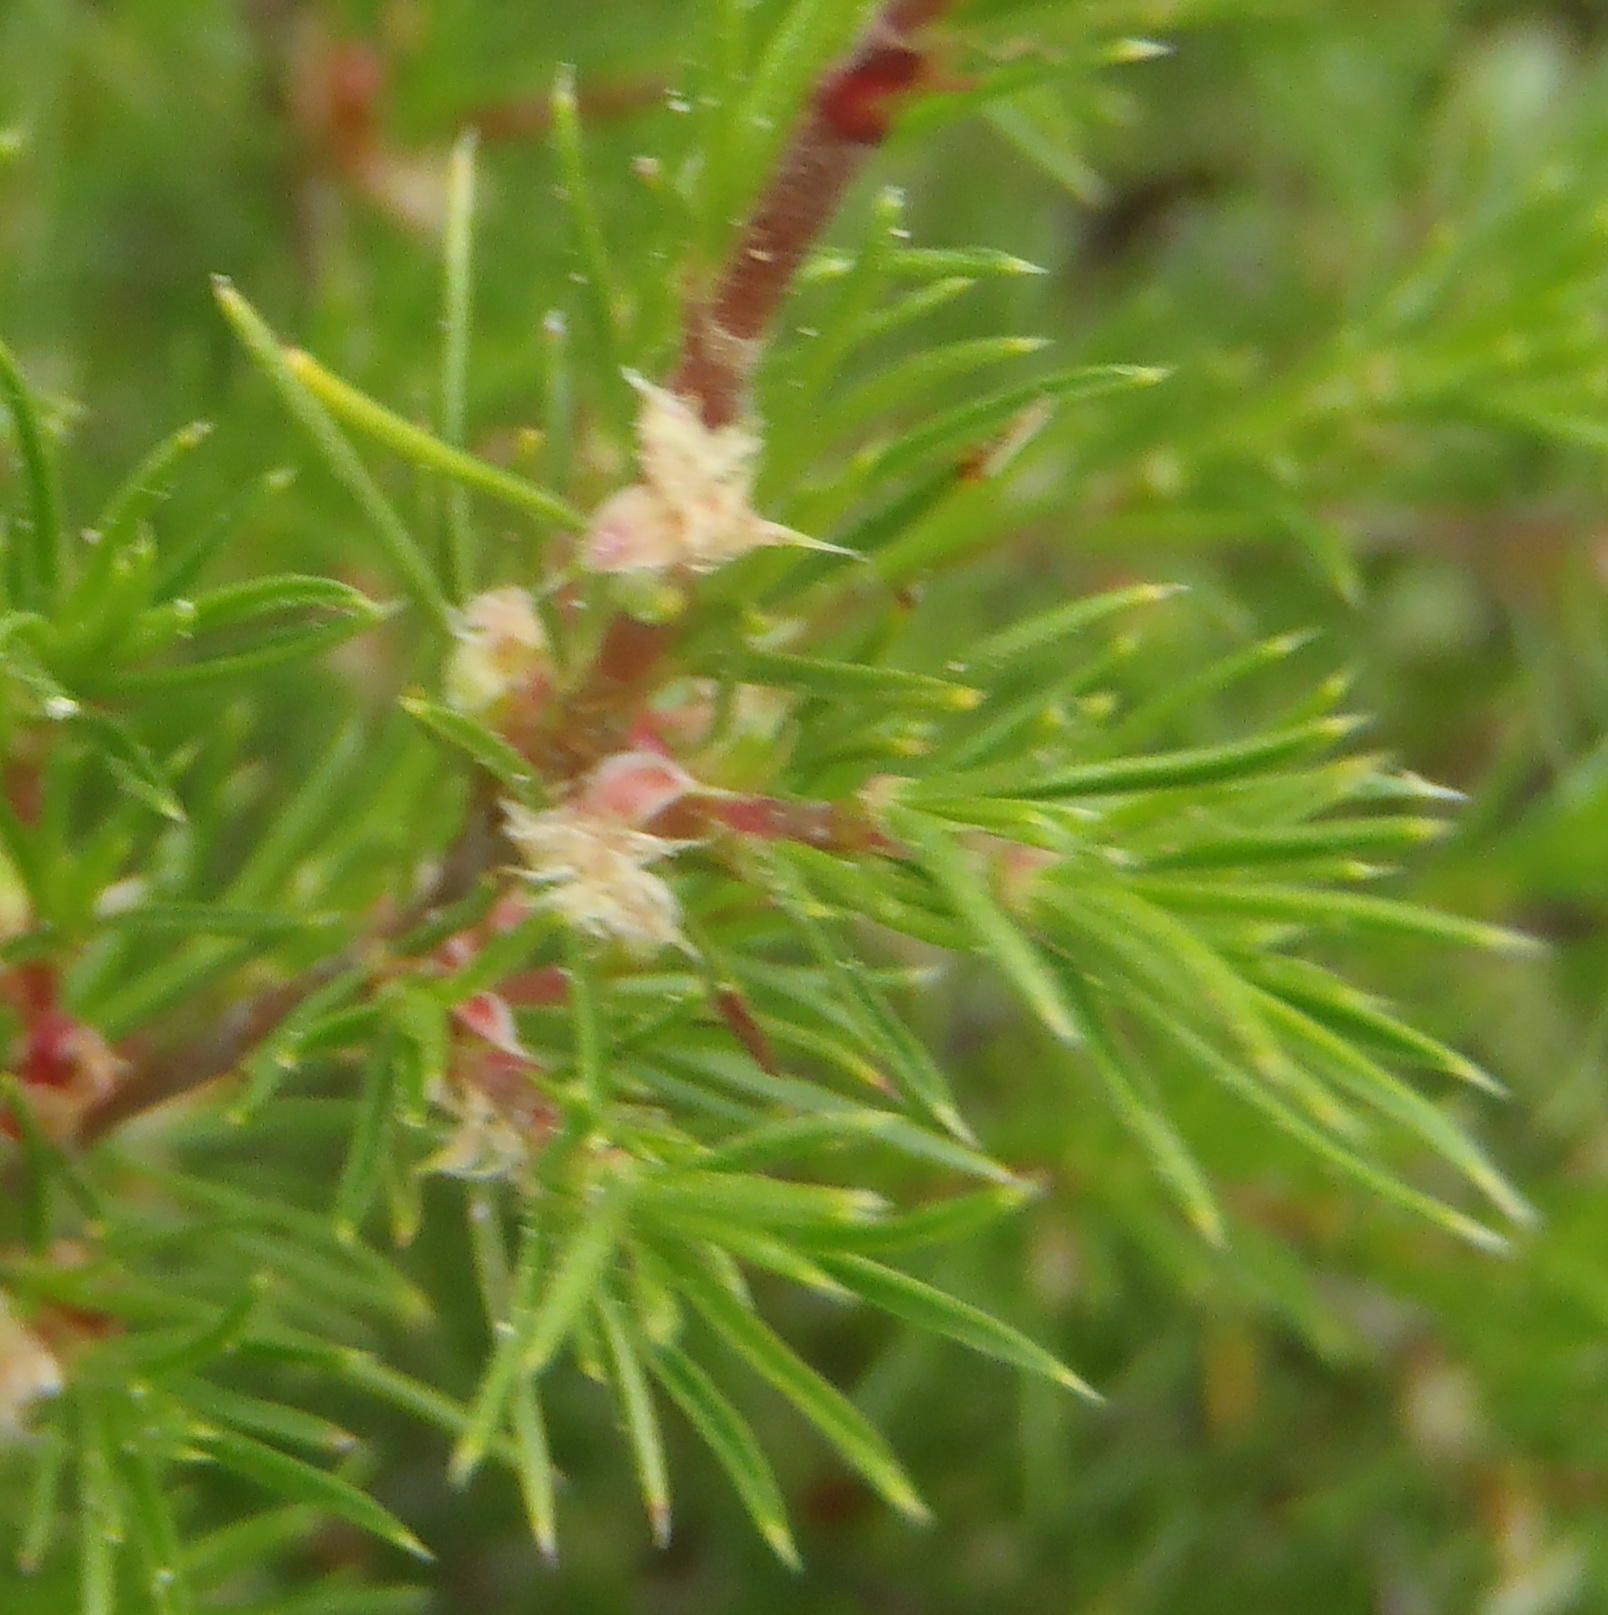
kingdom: Plantae
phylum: Tracheophyta
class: Magnoliopsida
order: Rosales
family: Rosaceae
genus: Cliffortia
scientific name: Cliffortia atrata
